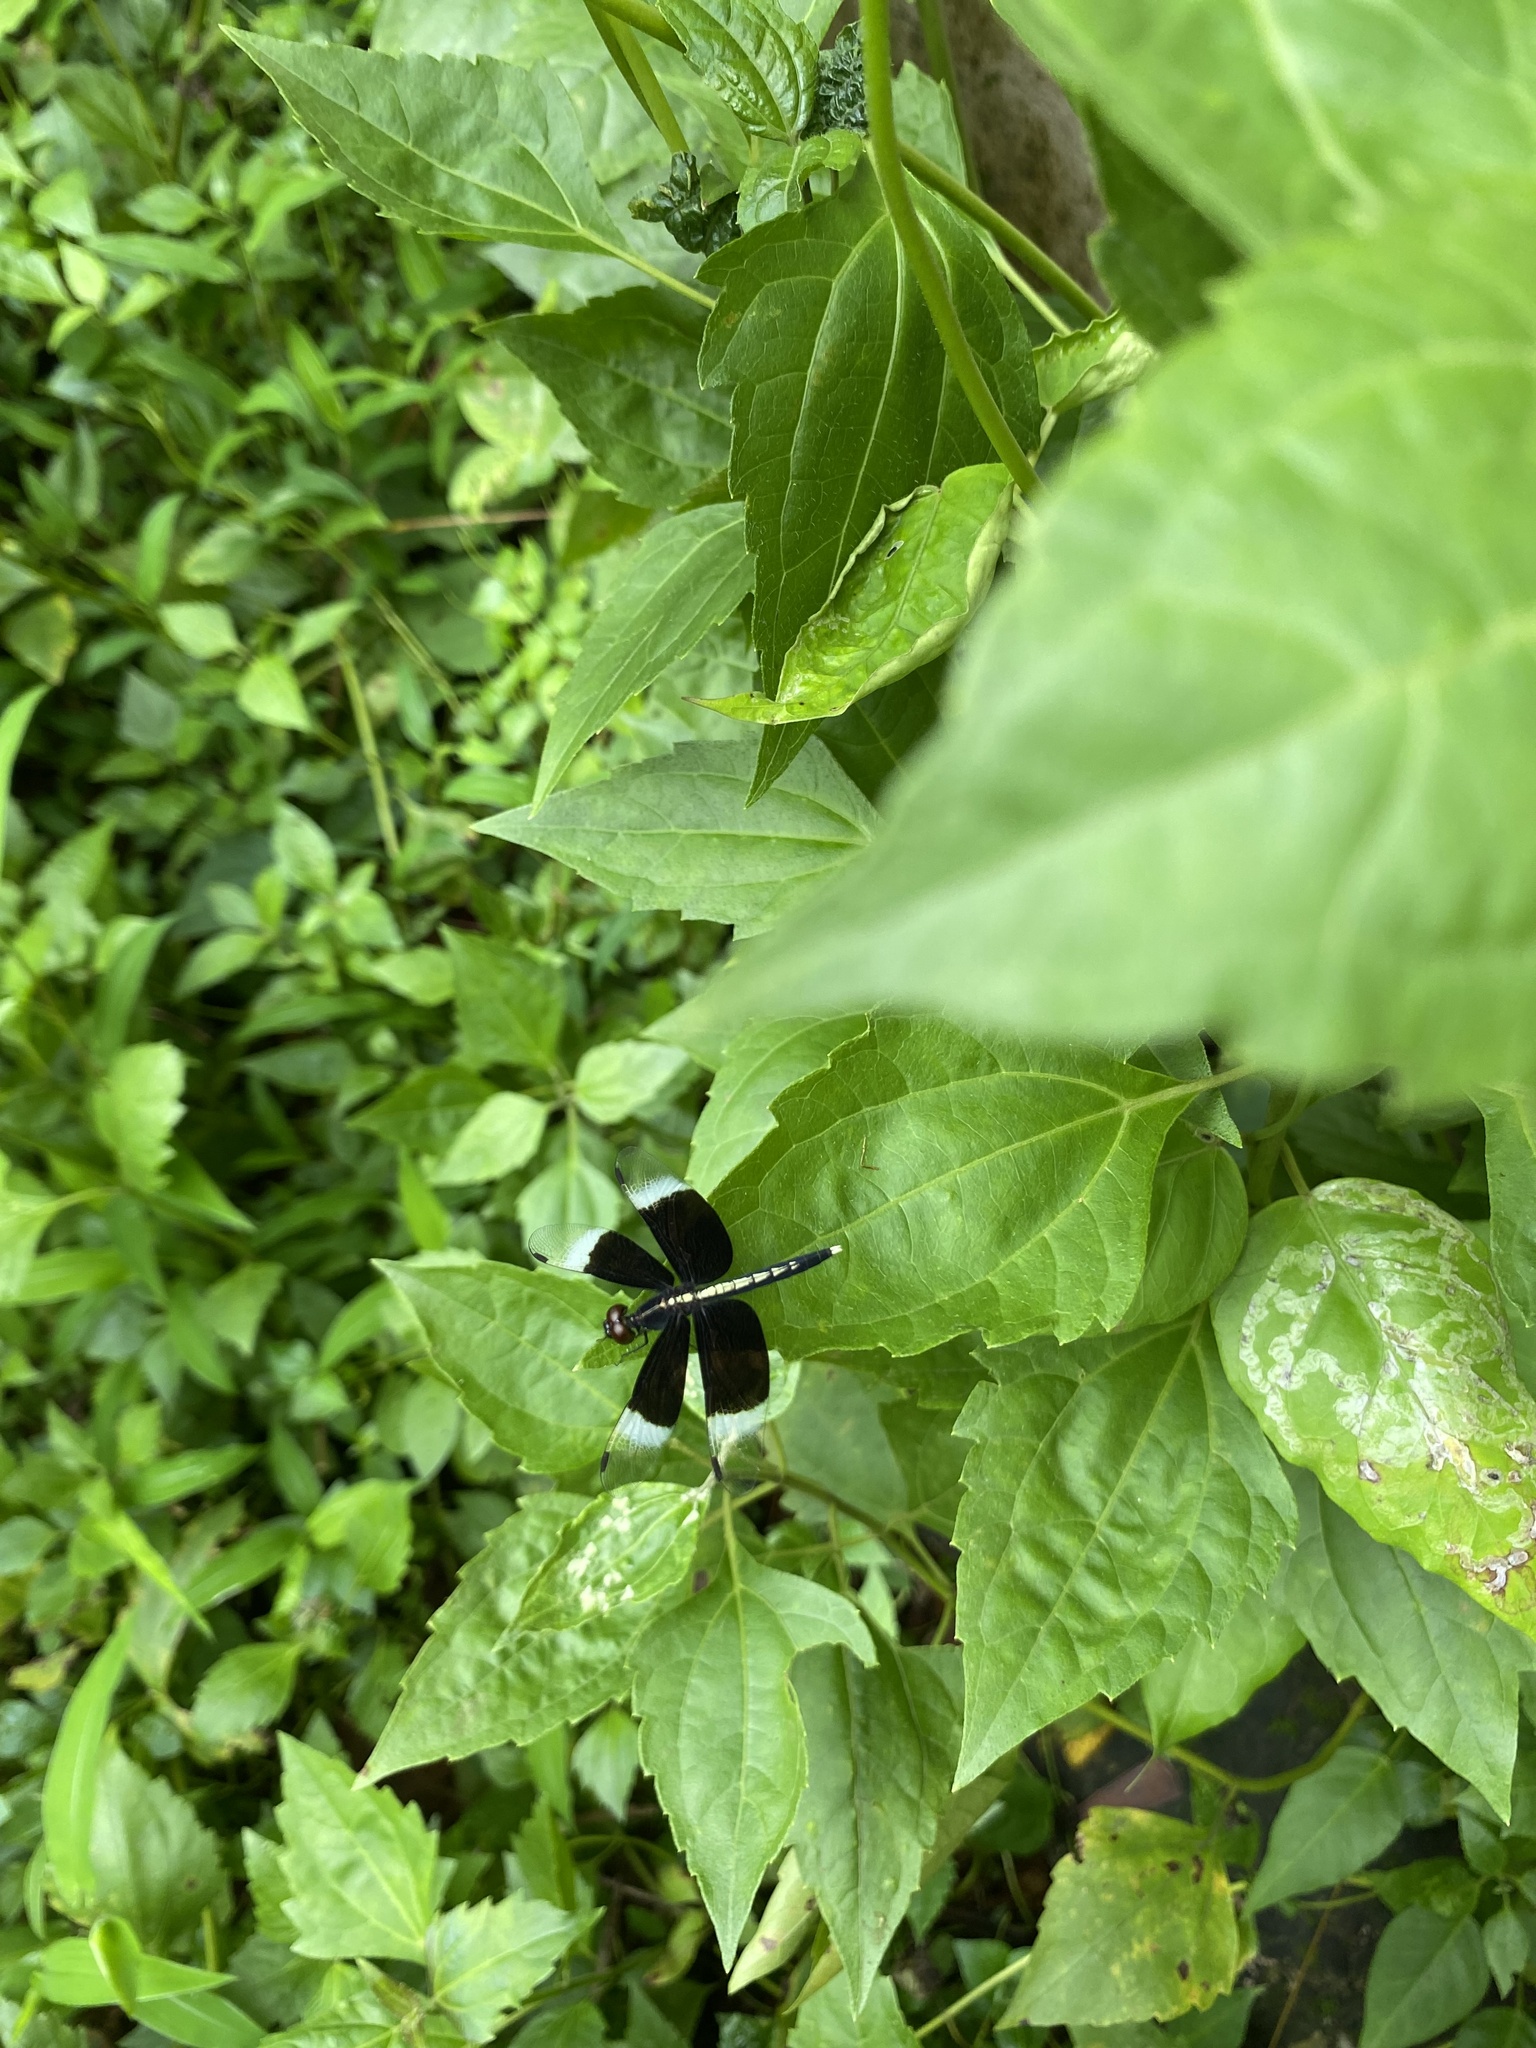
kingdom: Animalia
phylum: Arthropoda
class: Insecta
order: Odonata
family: Libellulidae
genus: Neurothemis
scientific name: Neurothemis tullia
